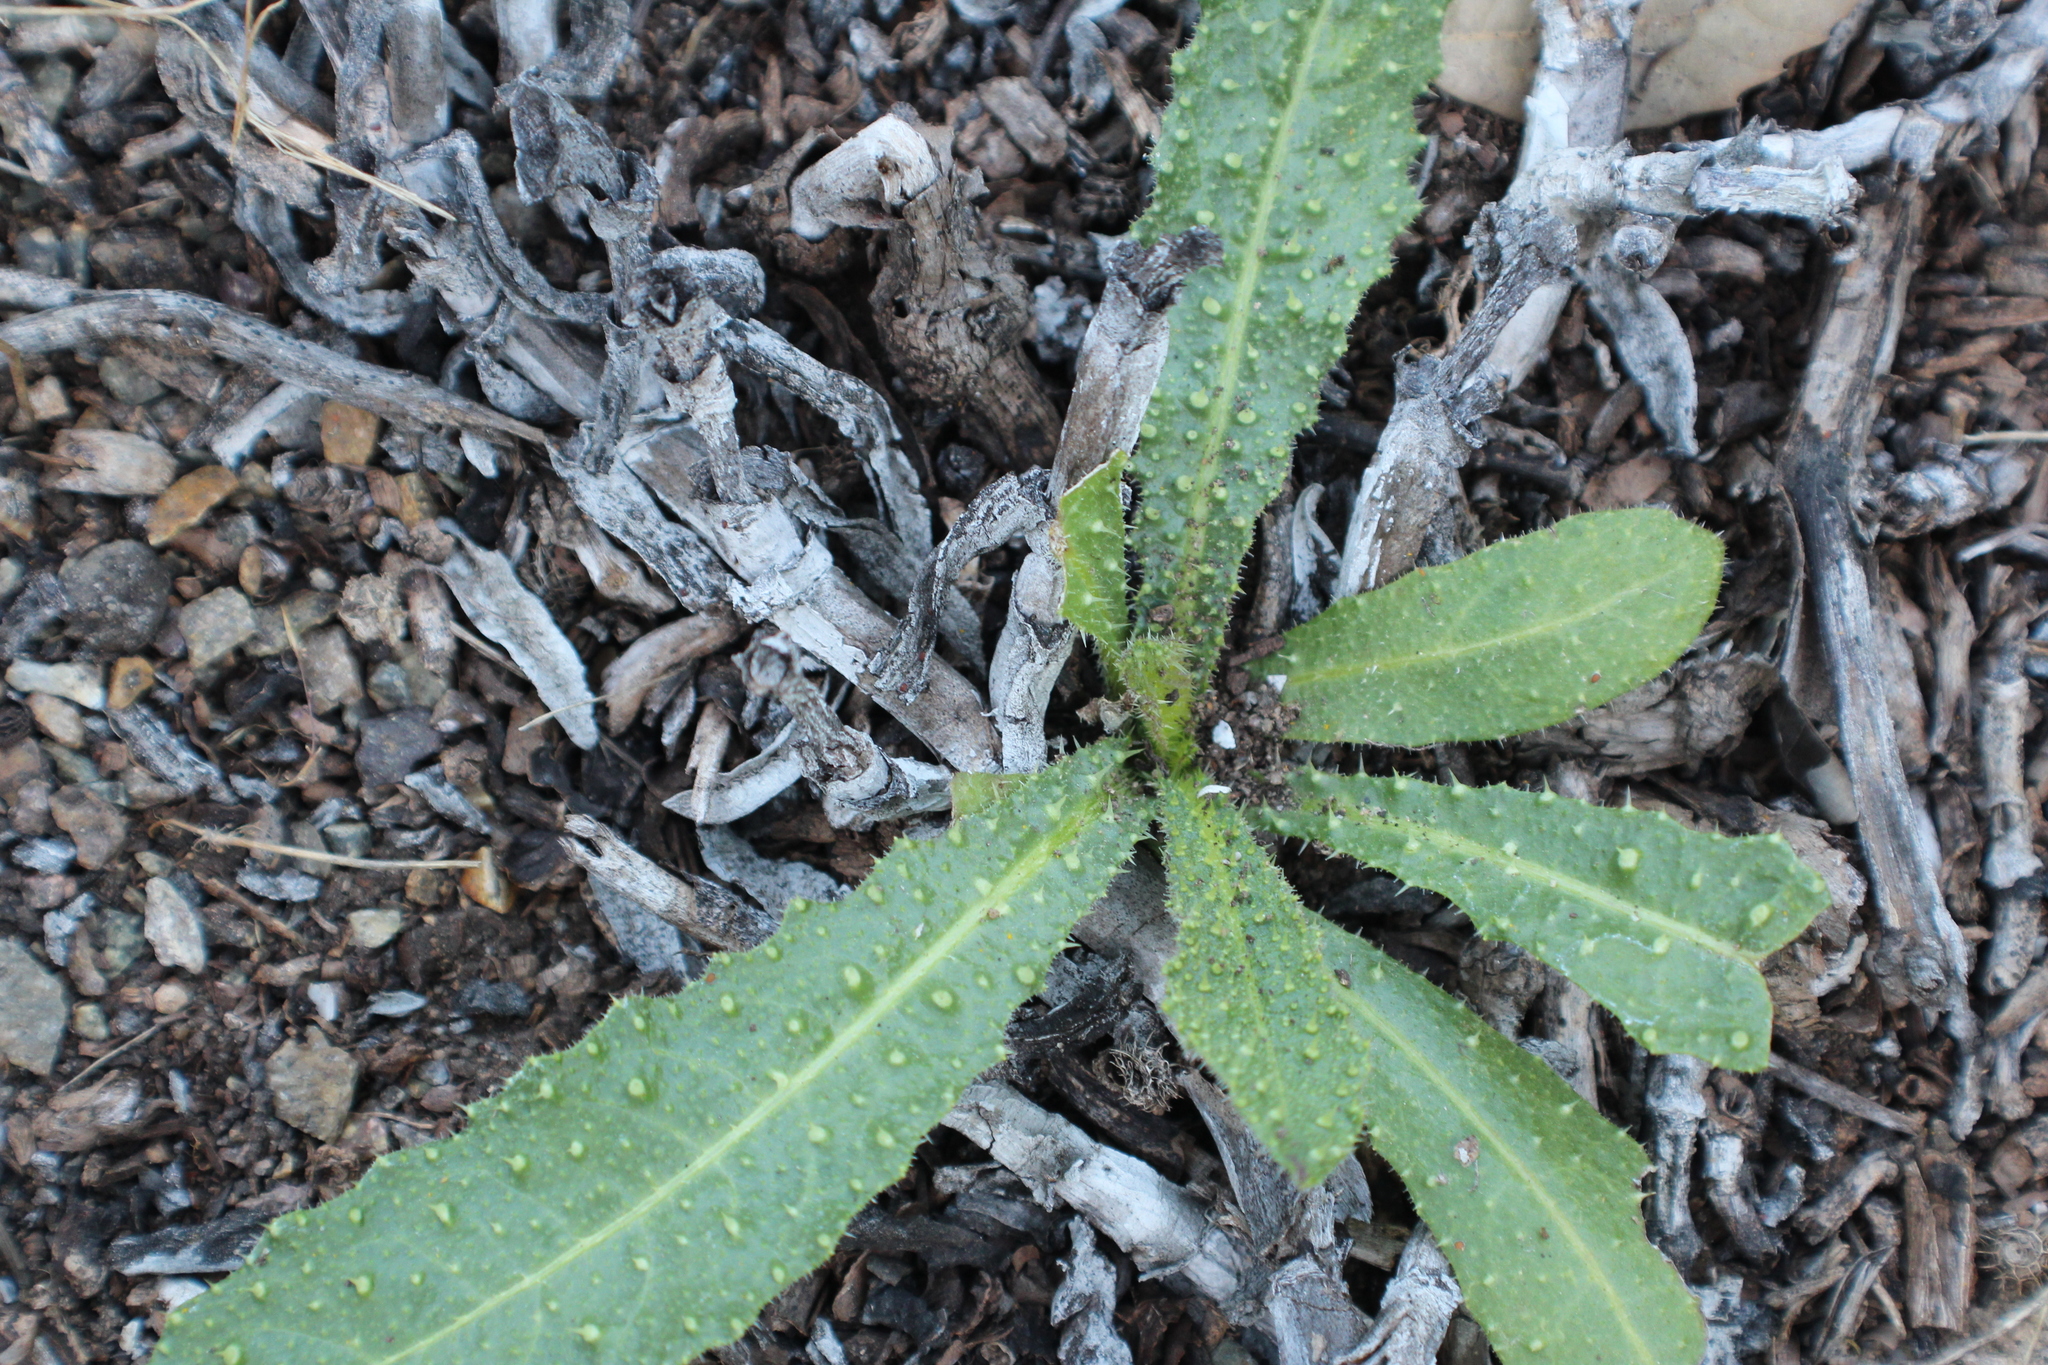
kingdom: Plantae
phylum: Tracheophyta
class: Magnoliopsida
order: Asterales
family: Asteraceae
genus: Helminthotheca
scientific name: Helminthotheca echioides
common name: Ox-tongue
